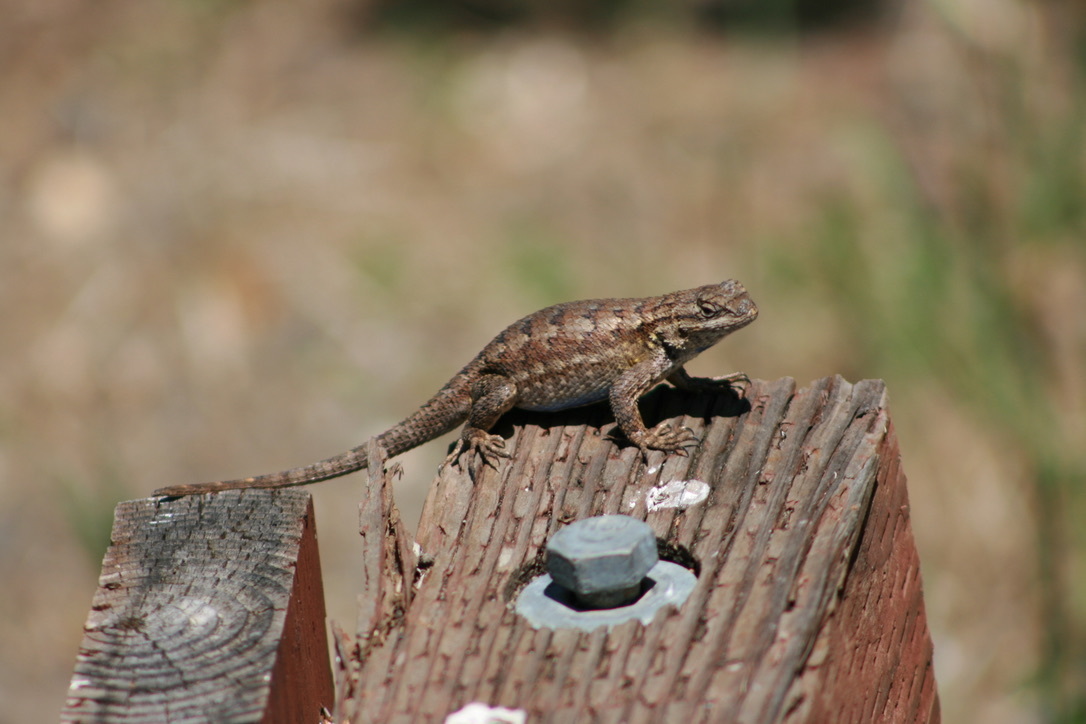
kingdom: Animalia
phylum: Chordata
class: Squamata
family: Phrynosomatidae
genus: Sceloporus
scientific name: Sceloporus occidentalis
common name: Western fence lizard
